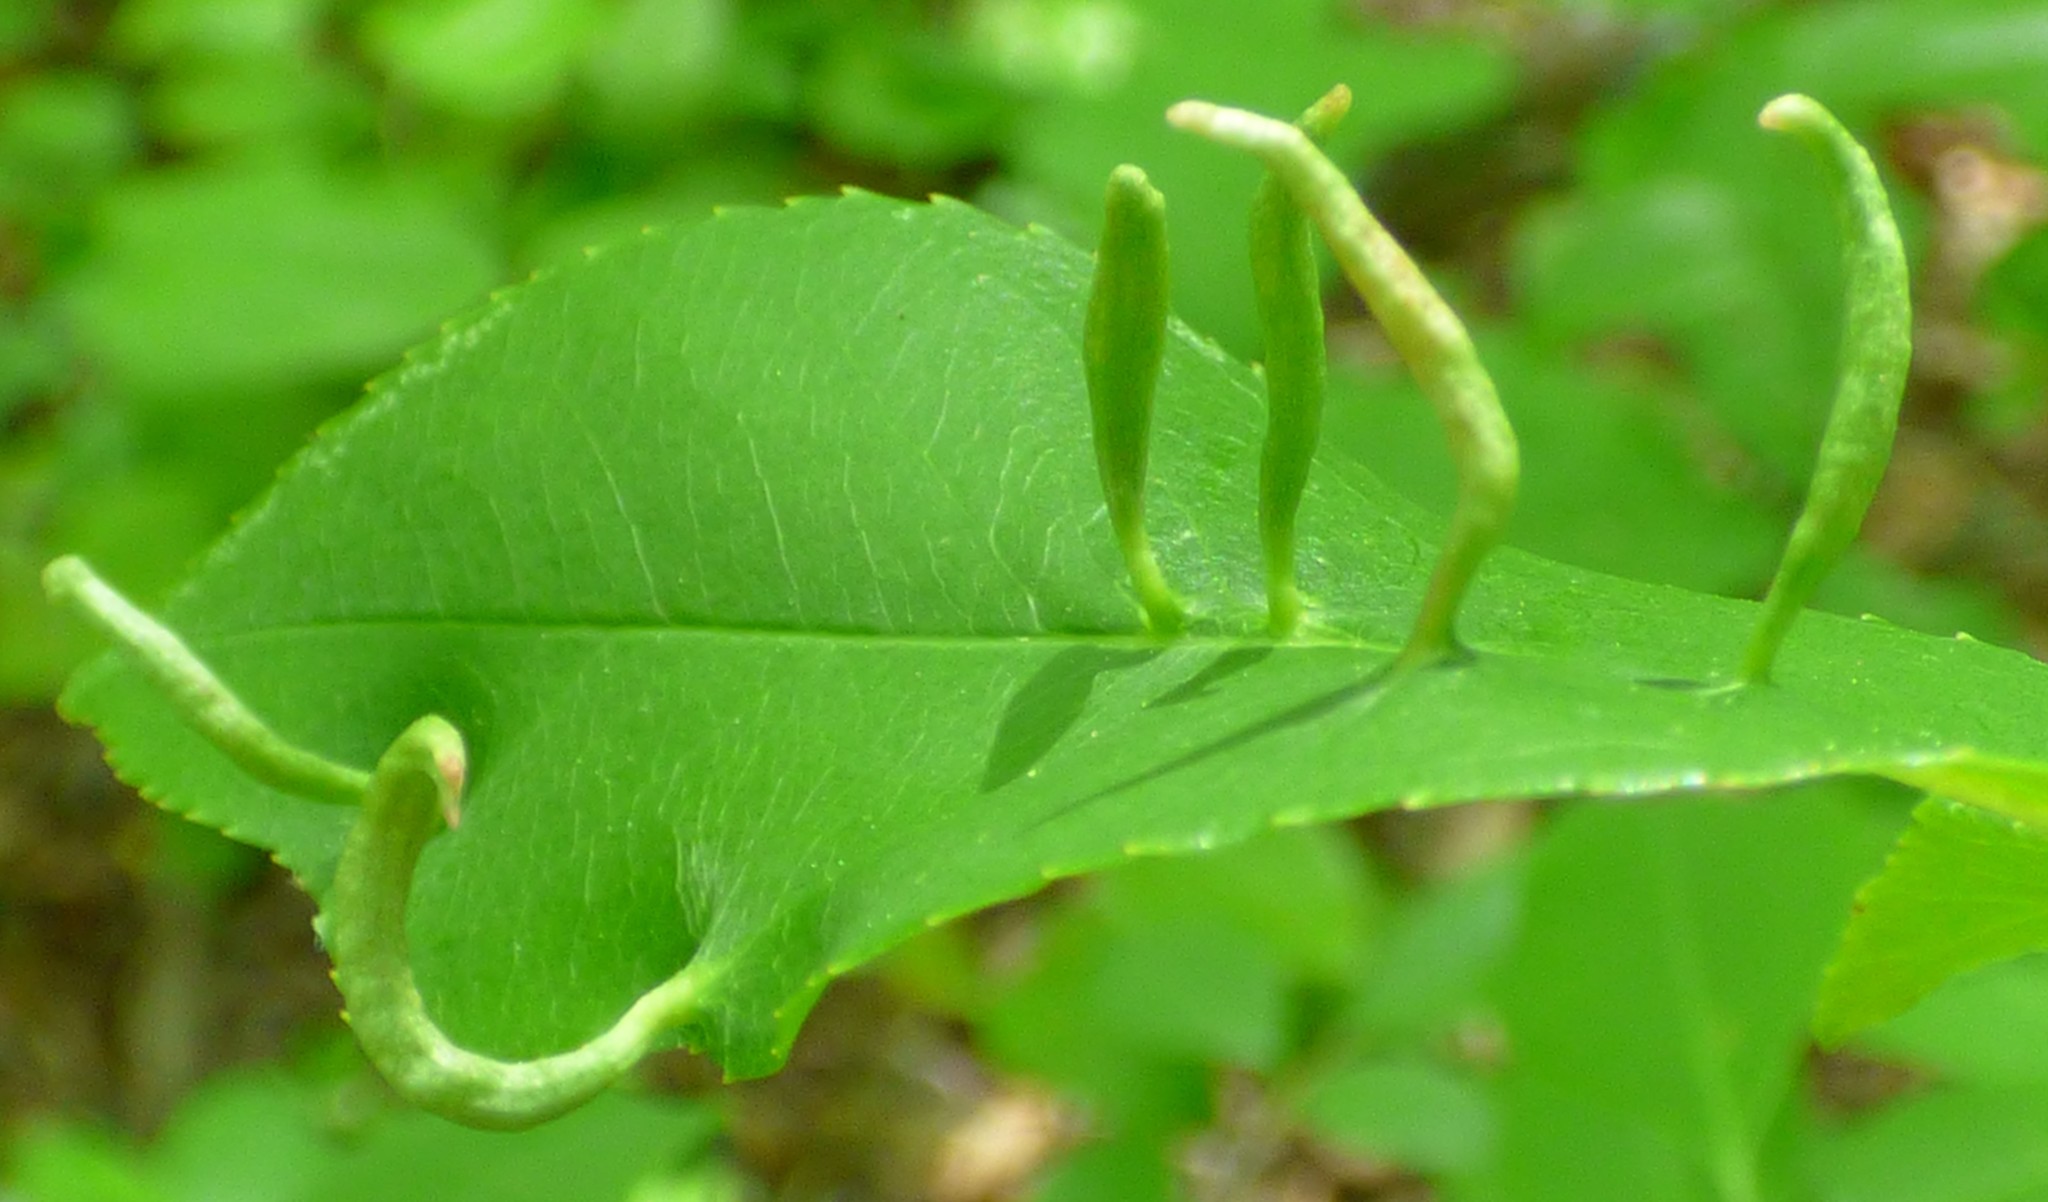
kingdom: Animalia
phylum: Arthropoda
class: Arachnida
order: Trombidiformes
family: Eriophyidae
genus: Eriophyes
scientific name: Eriophyes
